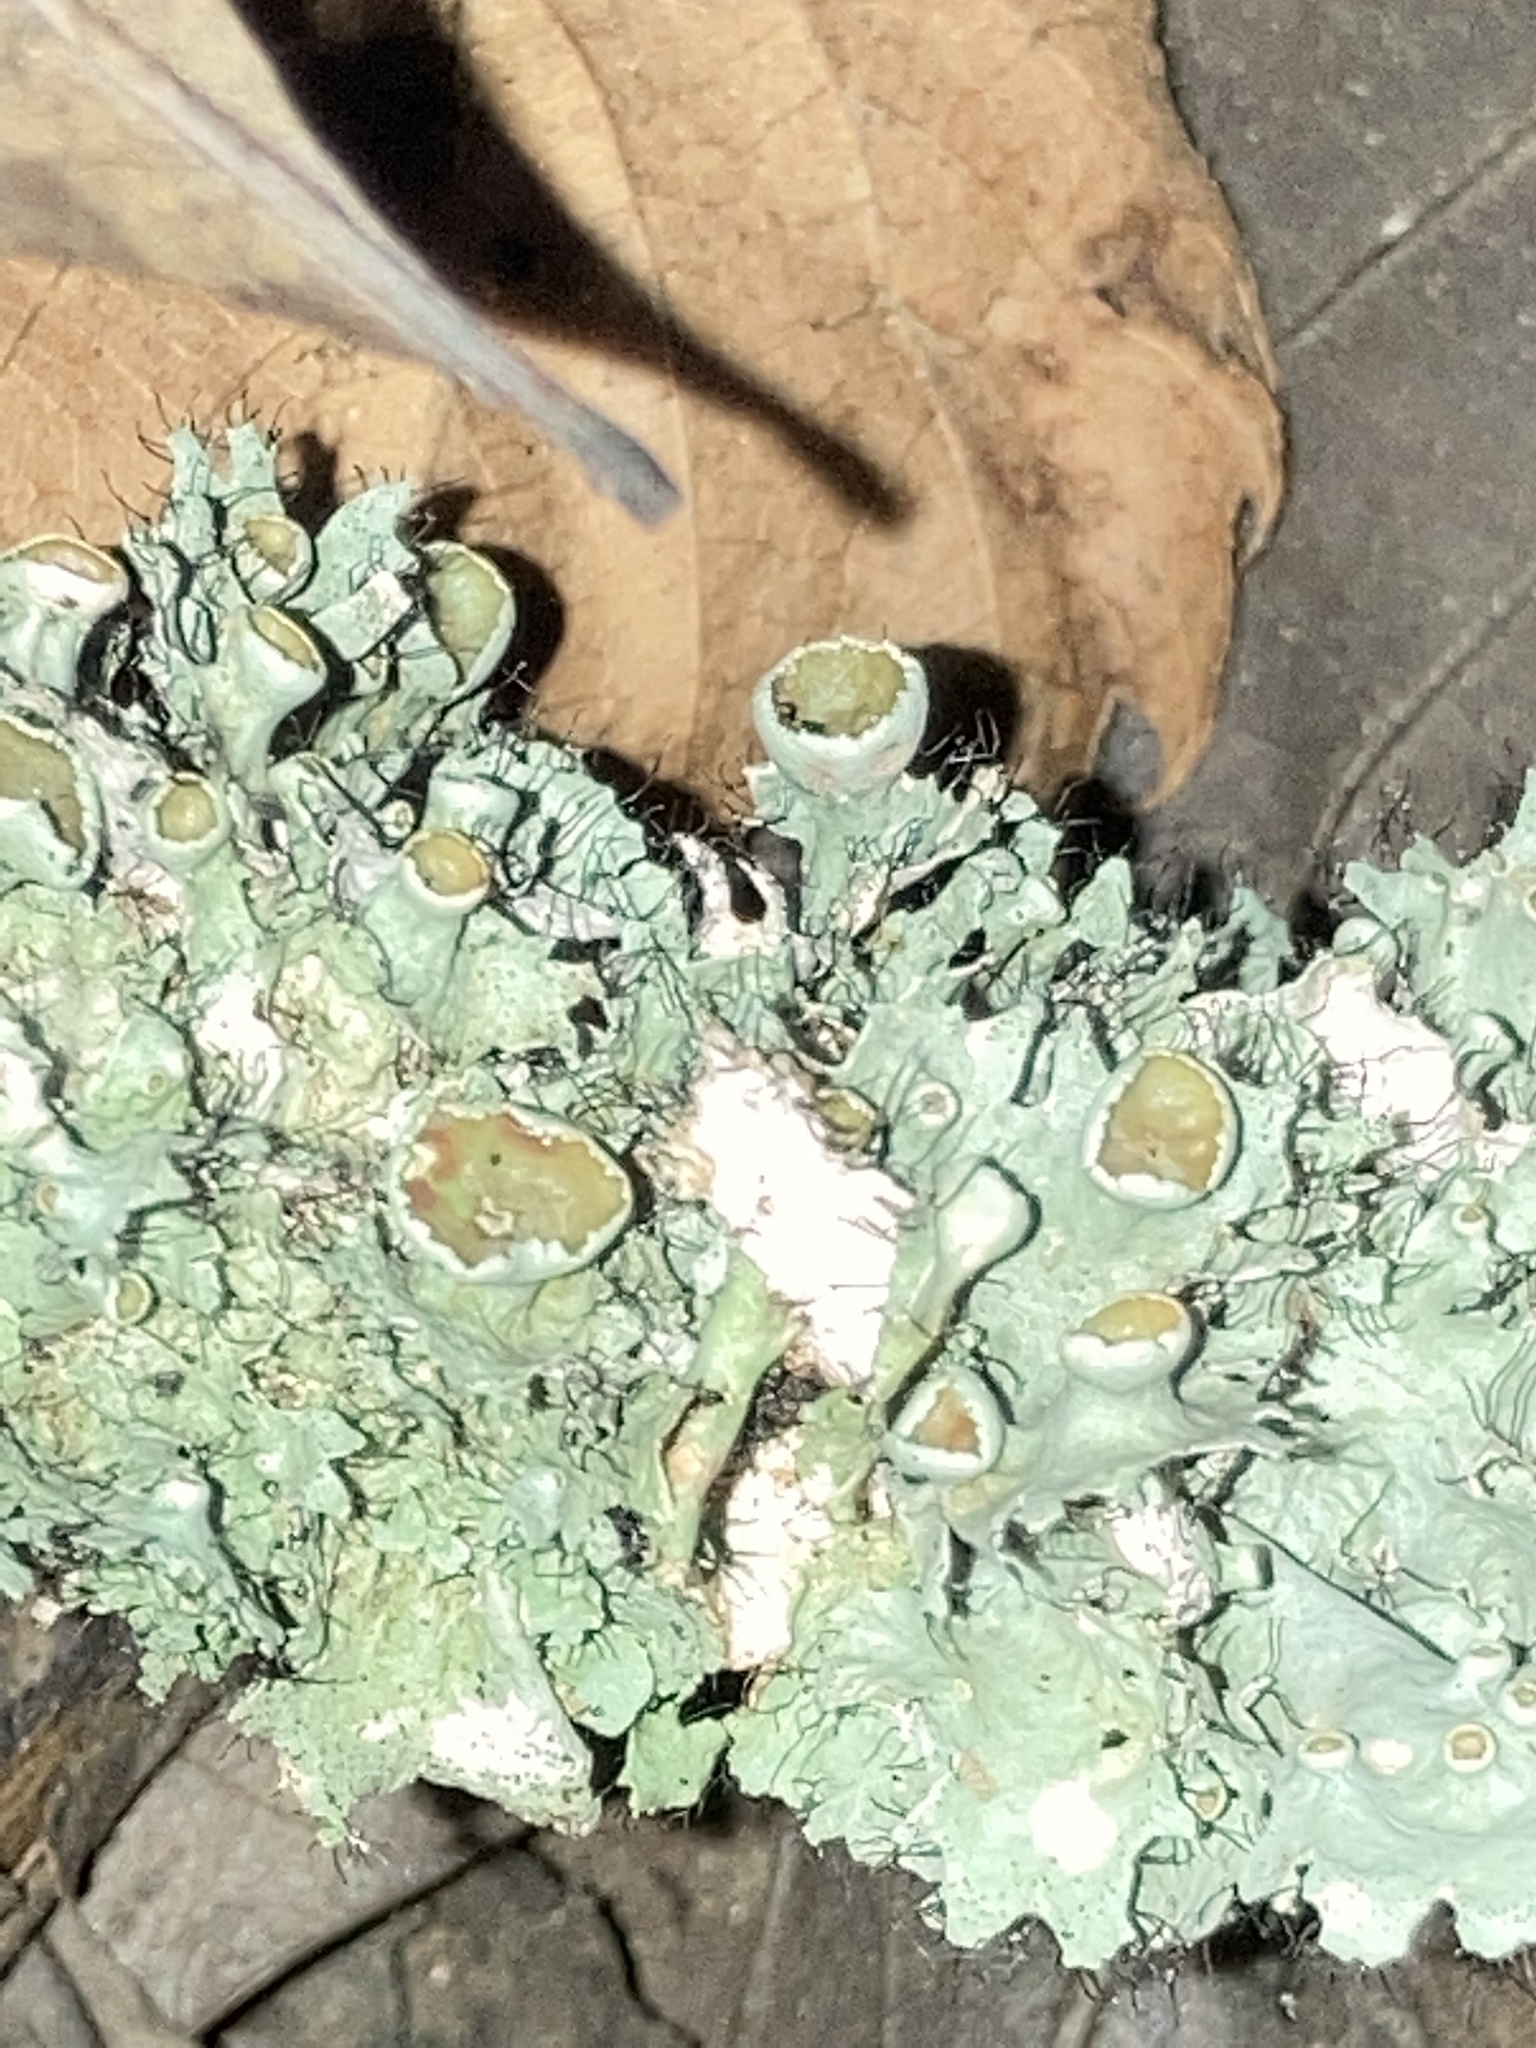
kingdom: Fungi
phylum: Ascomycota
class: Lecanoromycetes
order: Lecanorales
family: Parmeliaceae
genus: Parmotrema
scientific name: Parmotrema perforatum
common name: Perforated ruffle lichen
